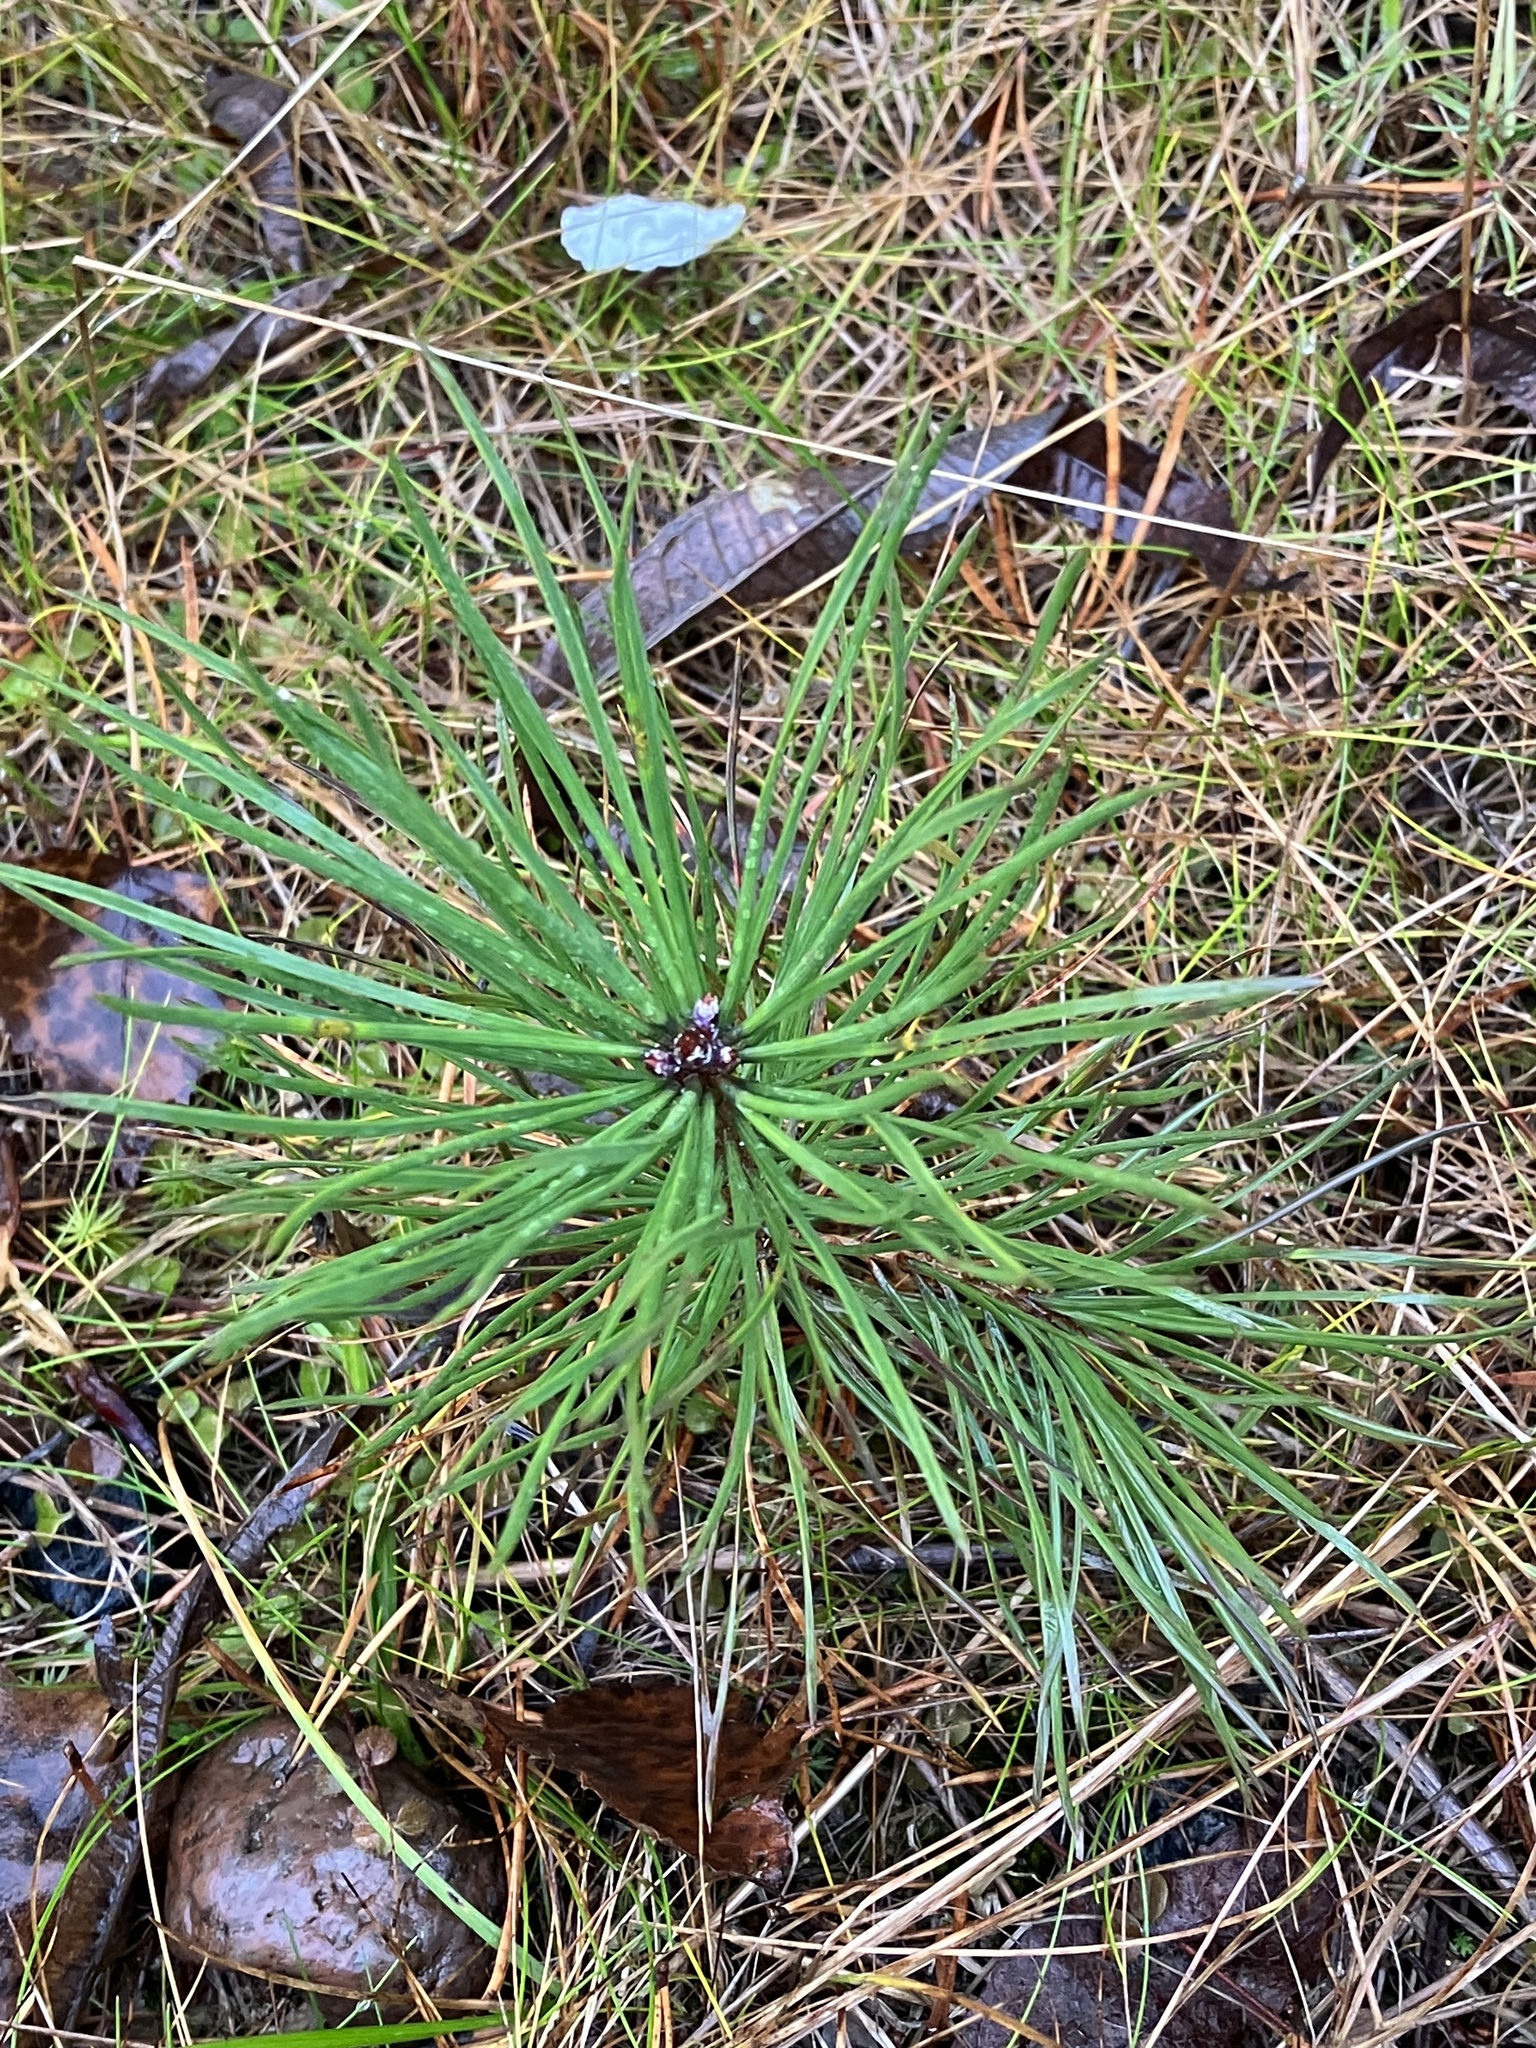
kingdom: Plantae
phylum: Tracheophyta
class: Pinopsida
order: Pinales
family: Pinaceae
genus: Pinus
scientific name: Pinus sylvestris
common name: Scots pine
